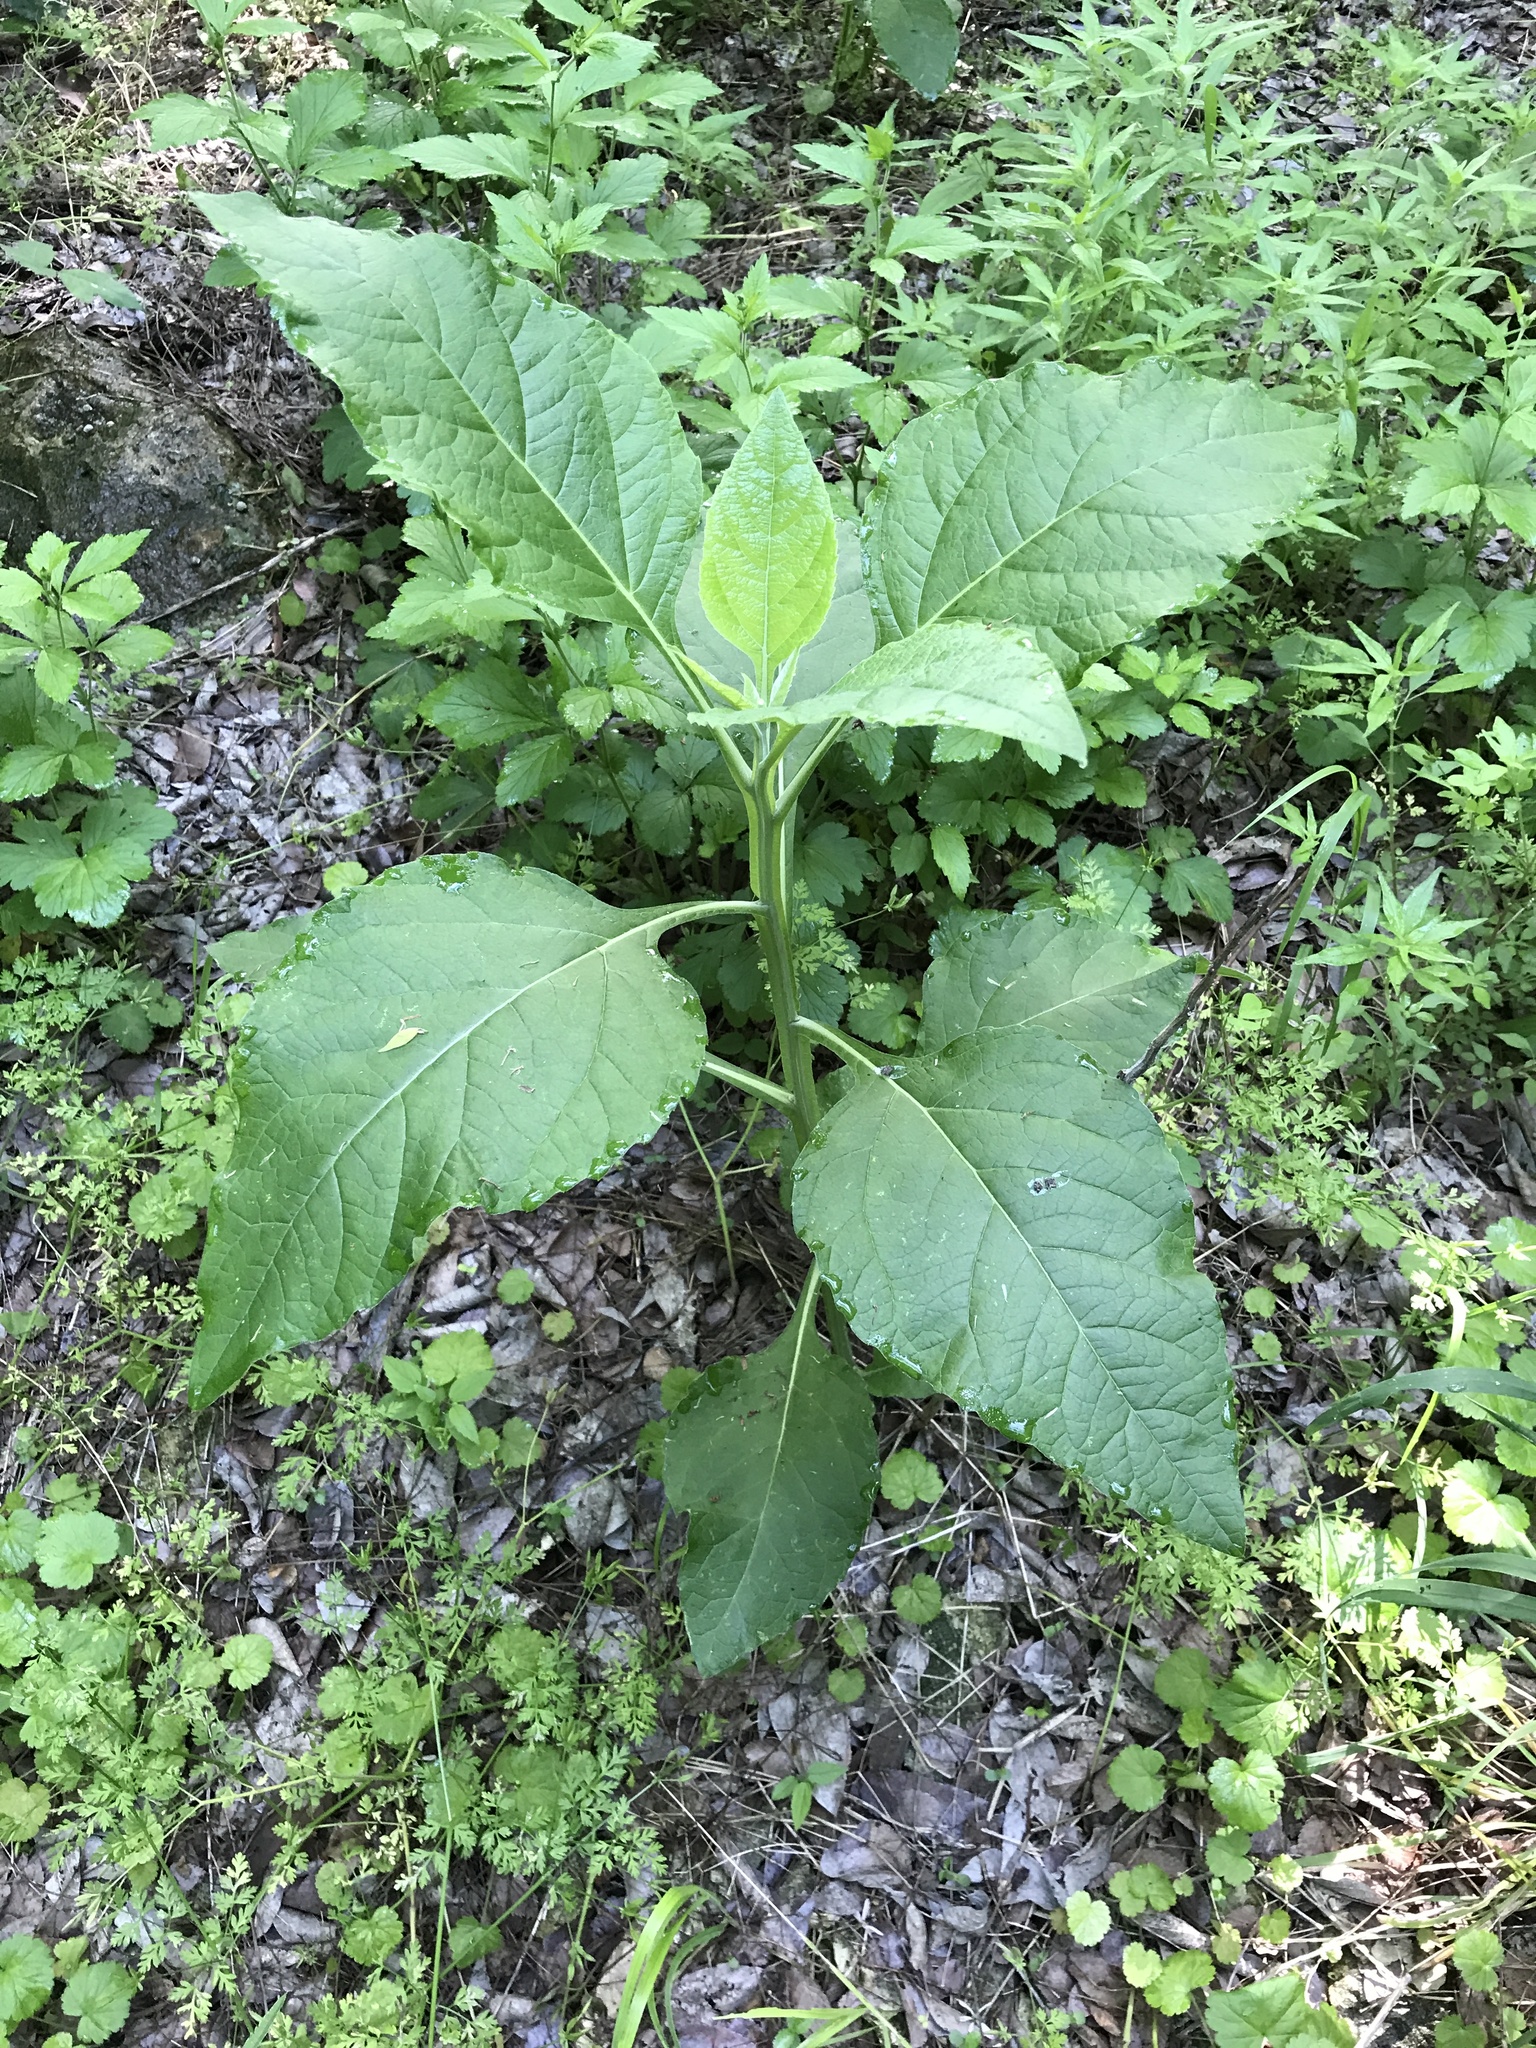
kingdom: Plantae
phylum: Tracheophyta
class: Magnoliopsida
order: Asterales
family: Asteraceae
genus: Verbesina
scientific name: Verbesina virginica
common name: Frostweed
